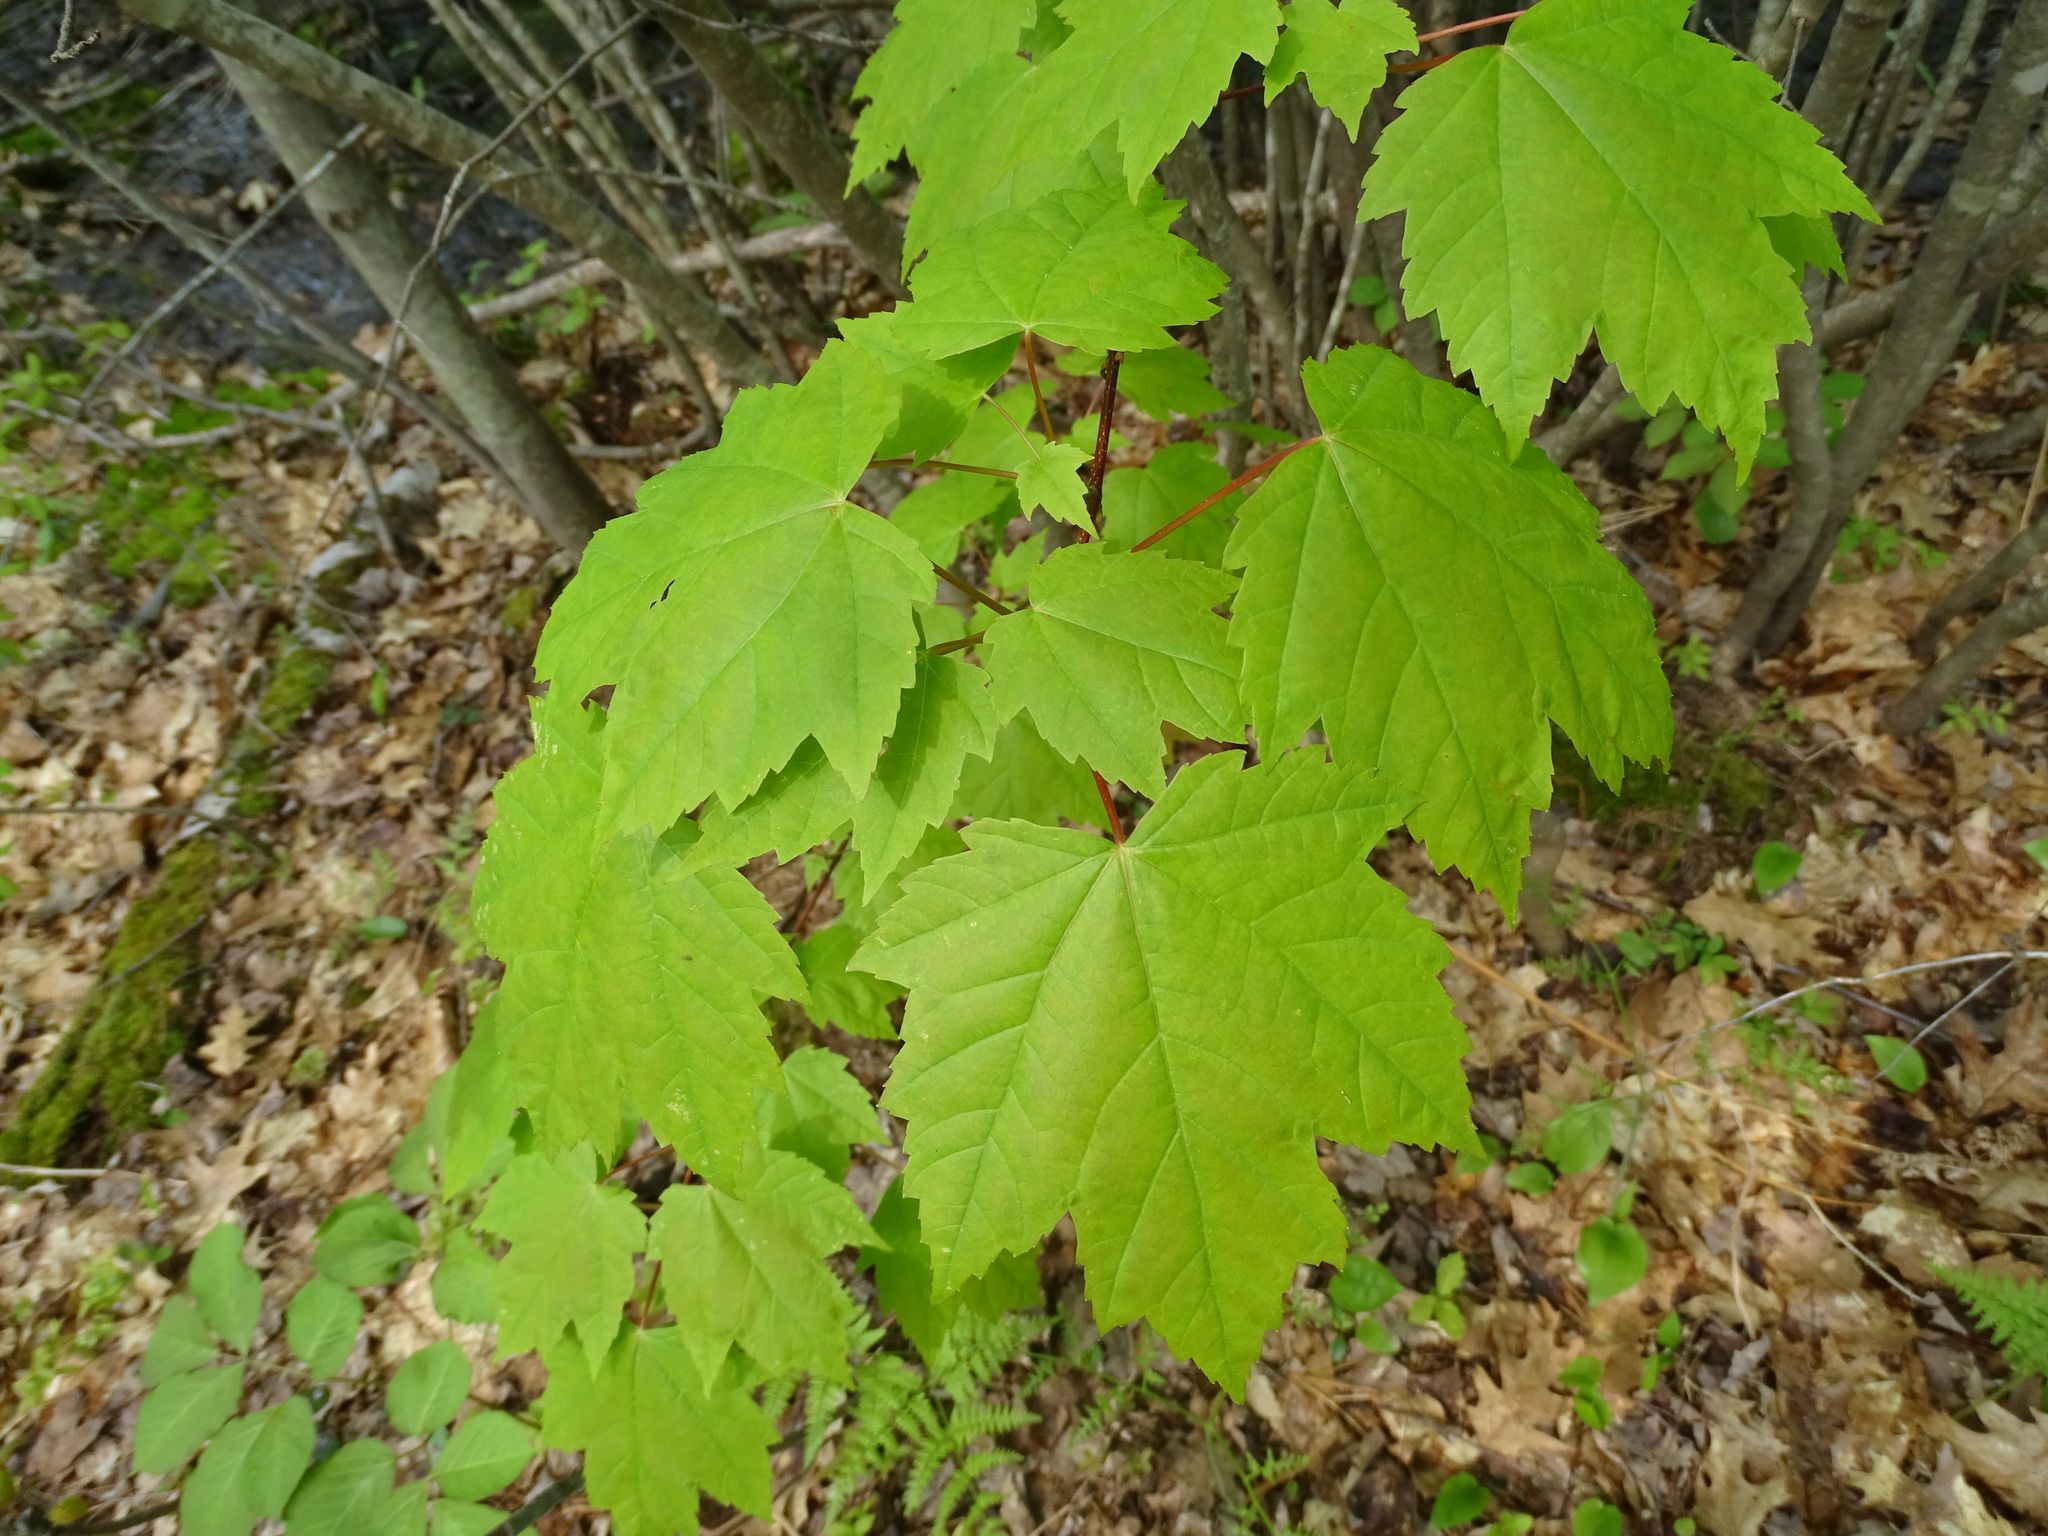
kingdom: Plantae
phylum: Tracheophyta
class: Magnoliopsida
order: Sapindales
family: Sapindaceae
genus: Acer
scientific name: Acer rubrum
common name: Red maple
